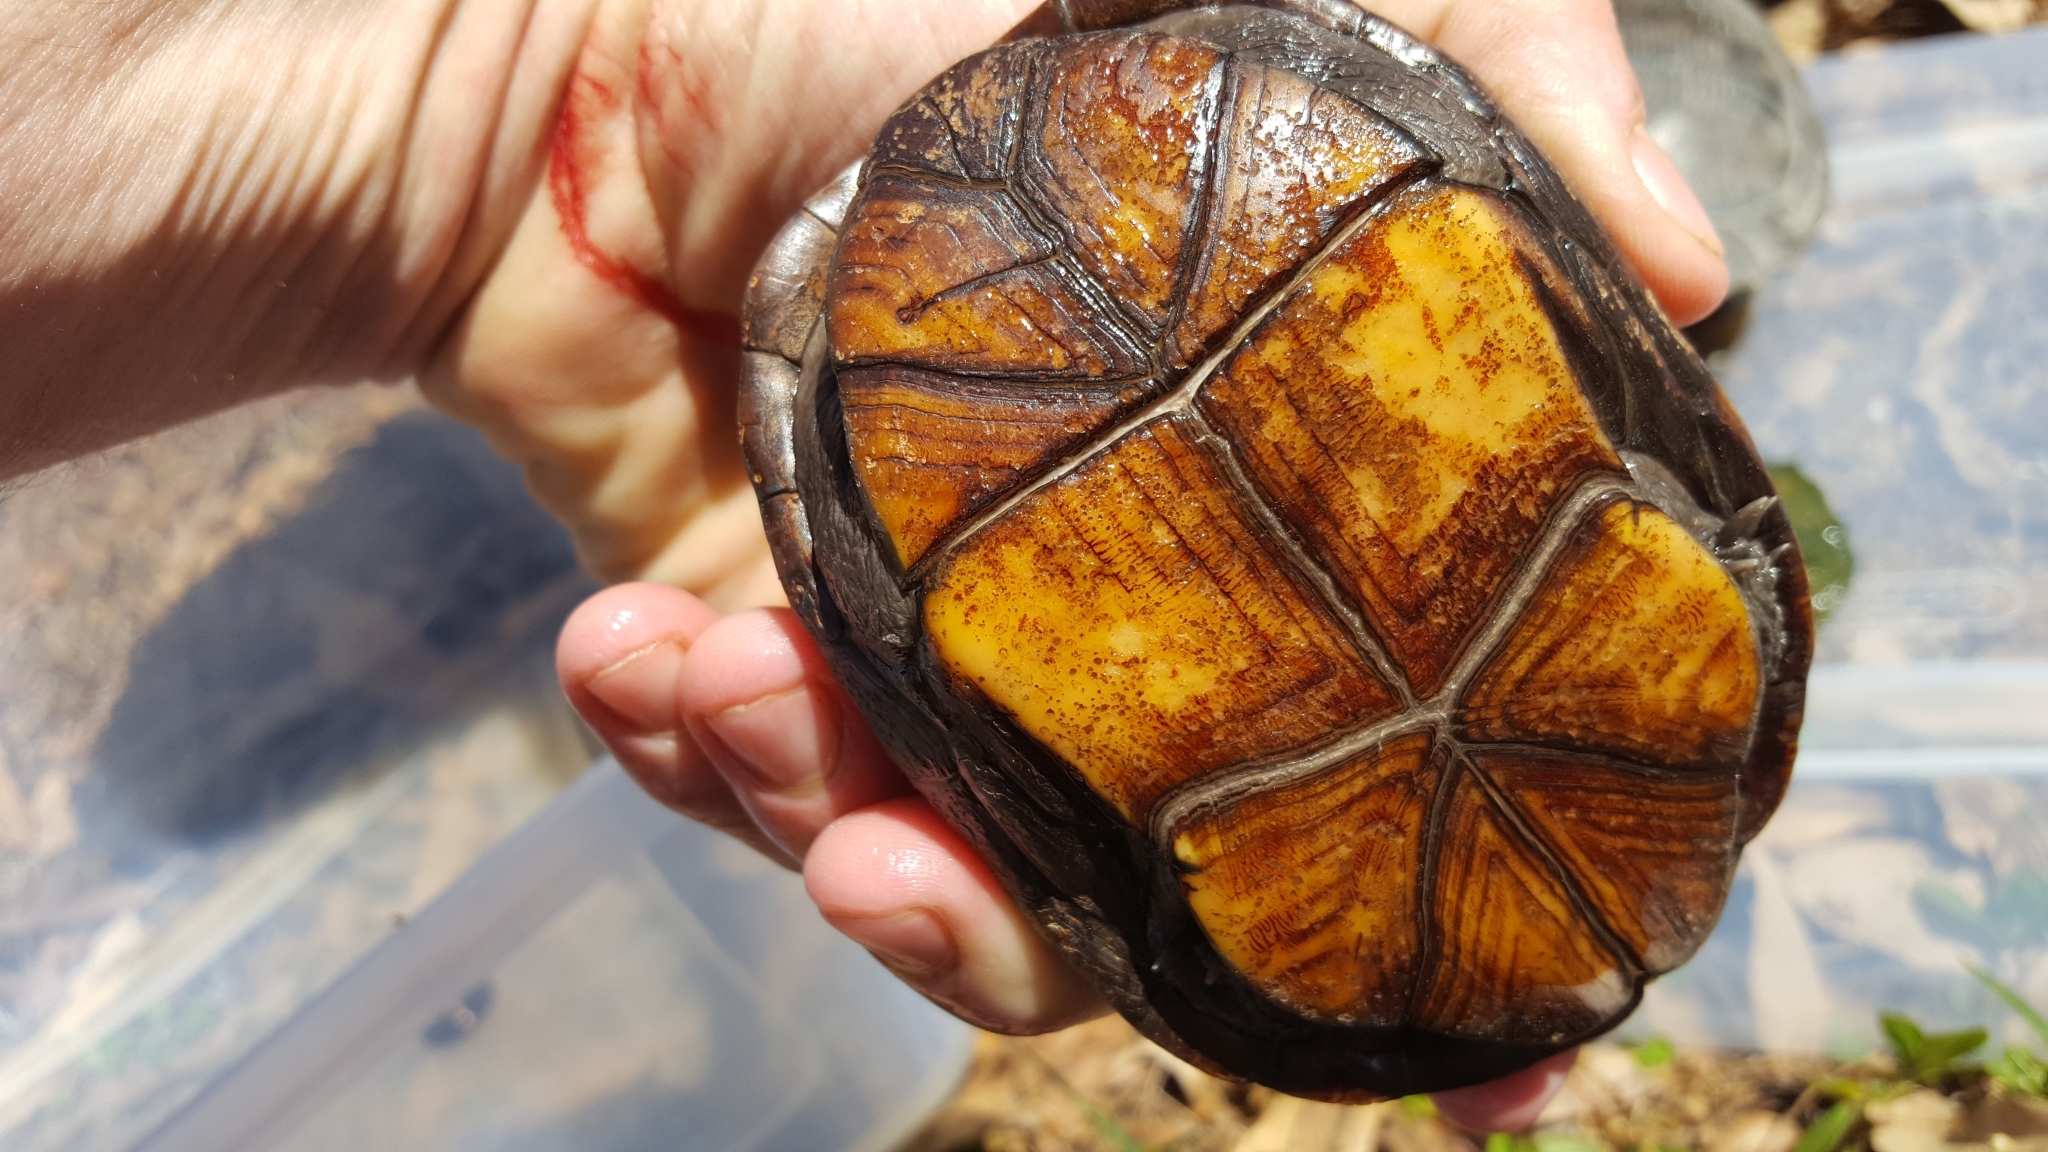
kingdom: Animalia
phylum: Chordata
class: Testudines
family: Kinosternidae
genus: Kinosternon
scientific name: Kinosternon subrubrum
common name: Eastern mud turtle
